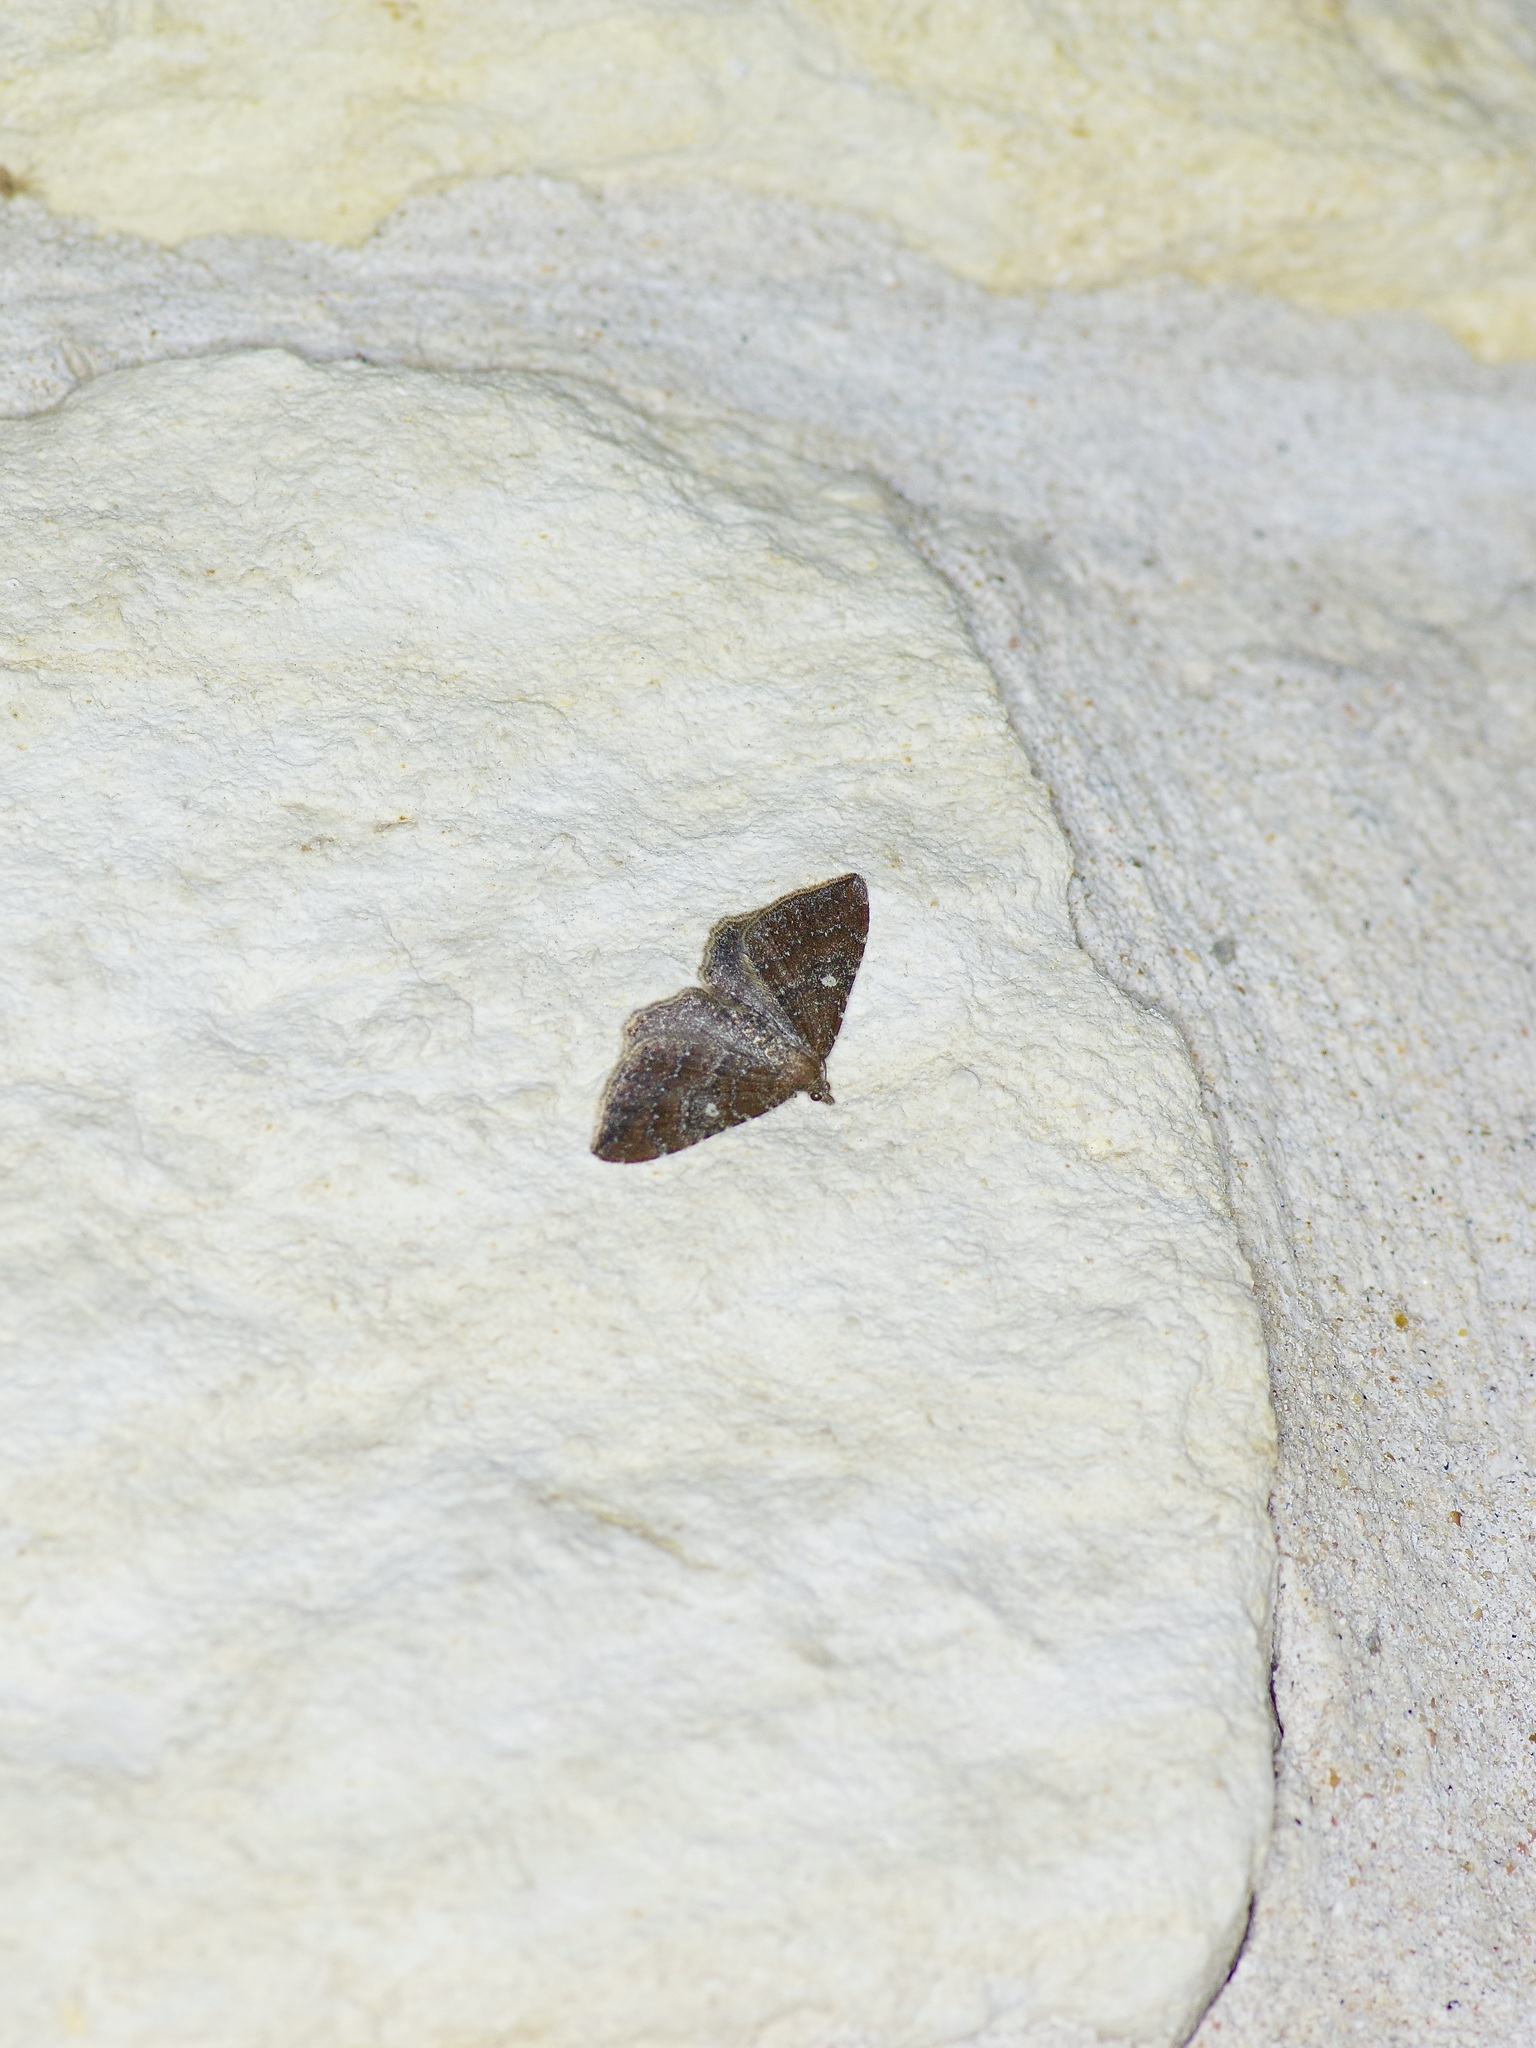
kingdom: Animalia
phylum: Arthropoda
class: Insecta
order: Lepidoptera
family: Geometridae
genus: Orthonama
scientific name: Orthonama obstipata
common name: The gem
